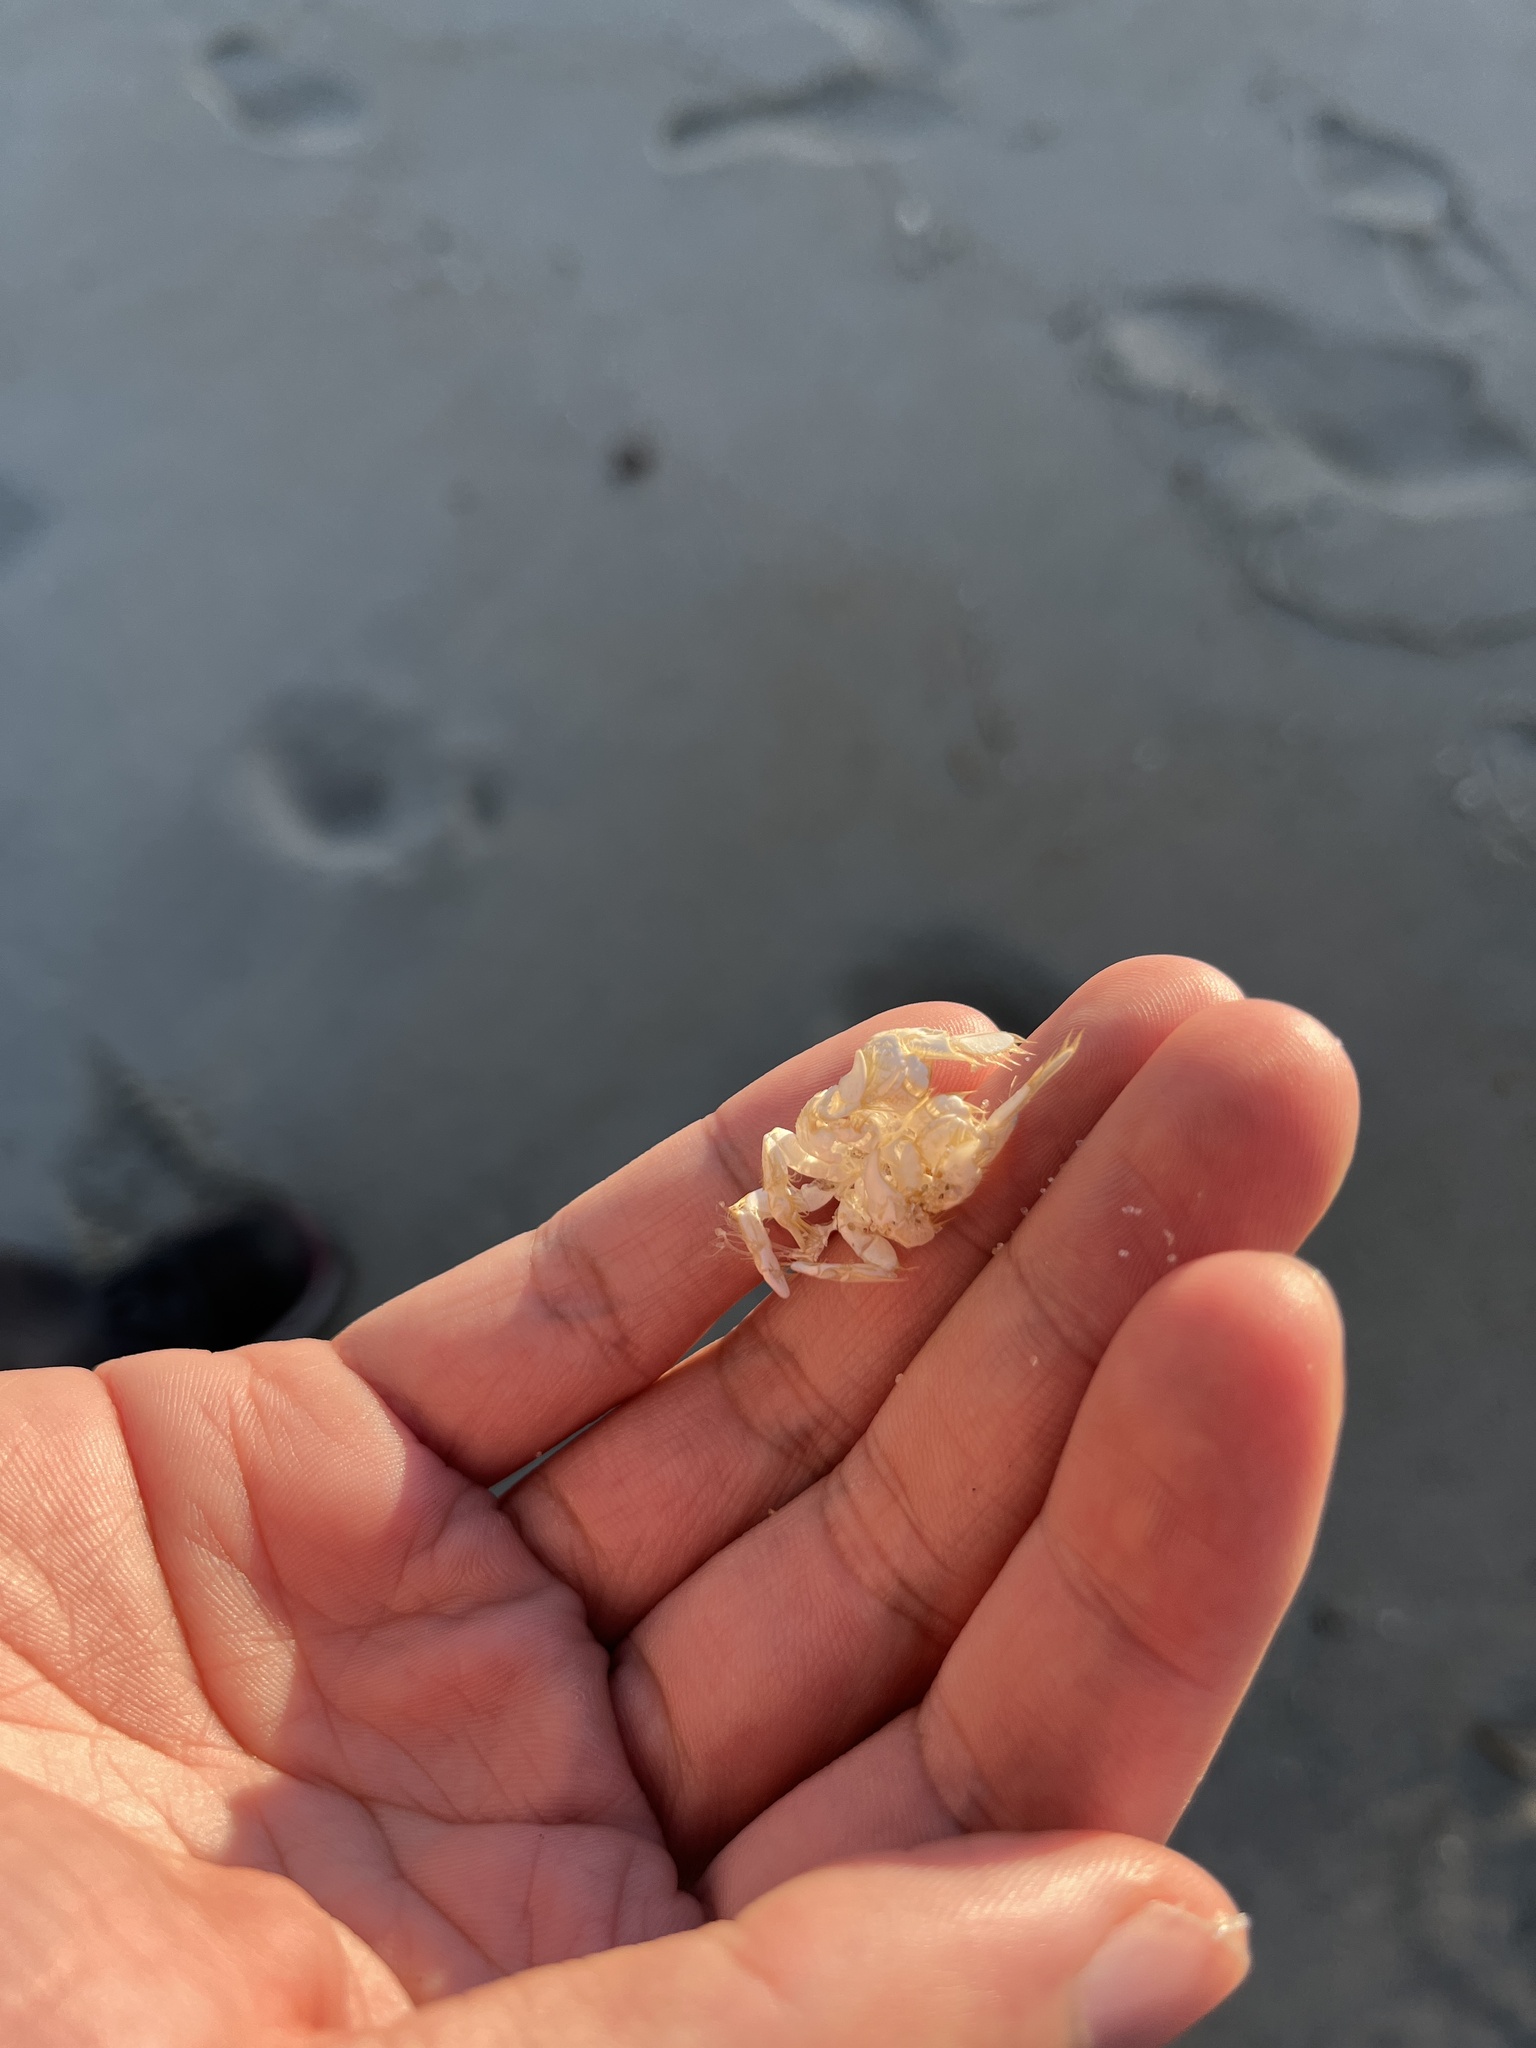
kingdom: Animalia
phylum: Arthropoda
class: Malacostraca
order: Decapoda
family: Hippidae
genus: Emerita
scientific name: Emerita talpoida
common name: Atlantic sand crab
